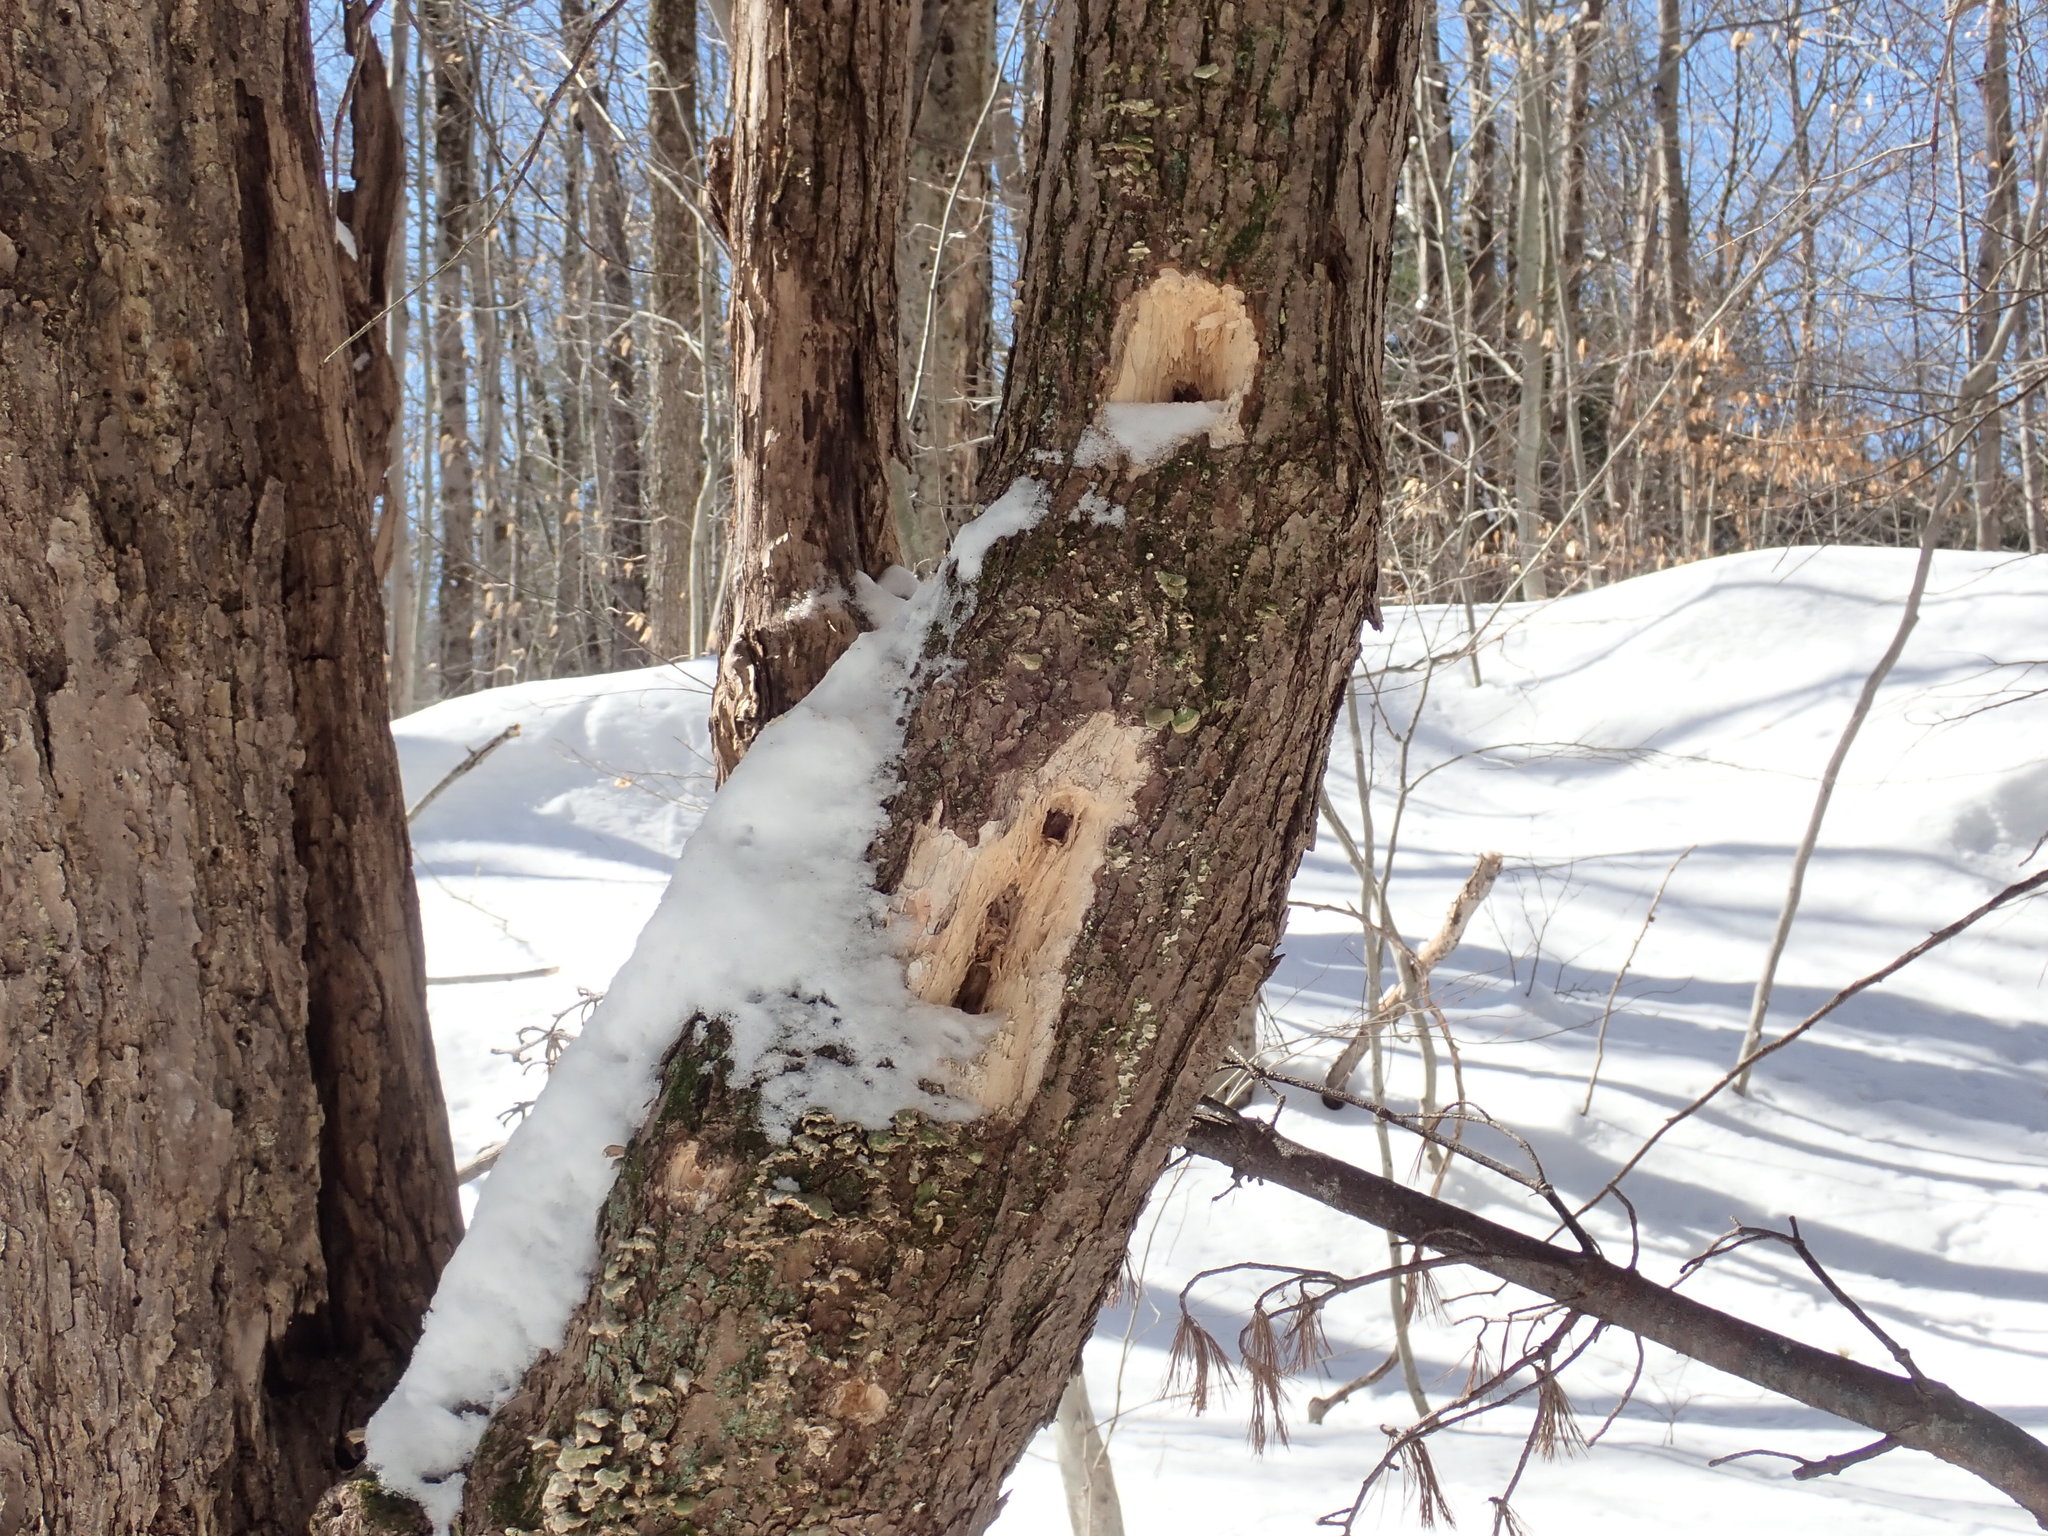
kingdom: Animalia
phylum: Chordata
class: Aves
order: Piciformes
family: Picidae
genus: Dryocopus
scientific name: Dryocopus pileatus
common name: Pileated woodpecker
